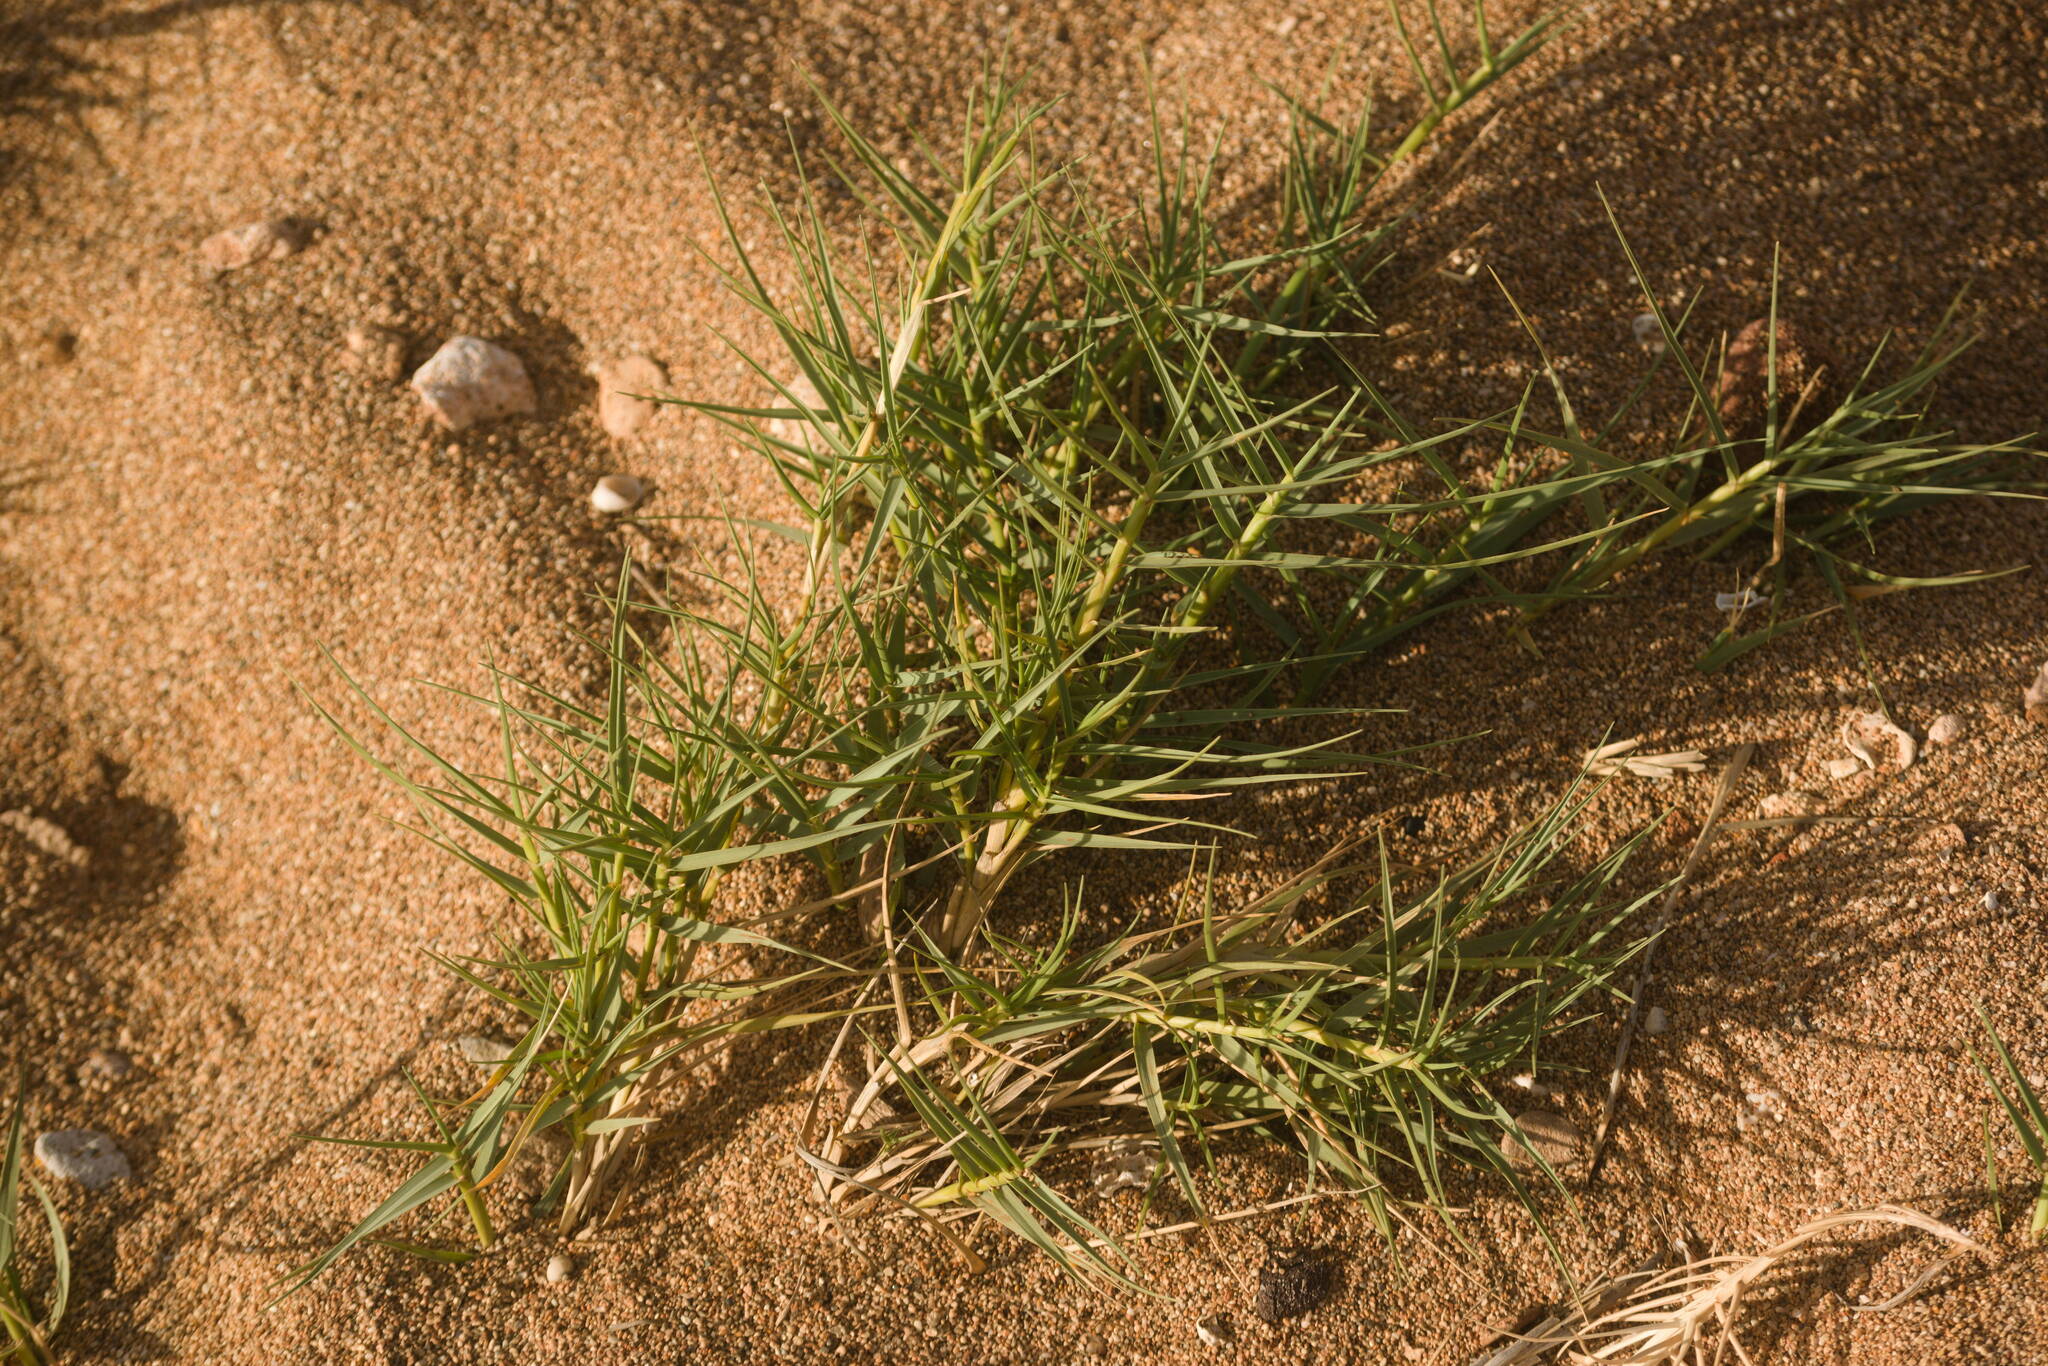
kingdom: Plantae
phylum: Tracheophyta
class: Liliopsida
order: Poales
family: Poaceae
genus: Sporobolus
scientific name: Sporobolus virginicus
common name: Beach dropseed
